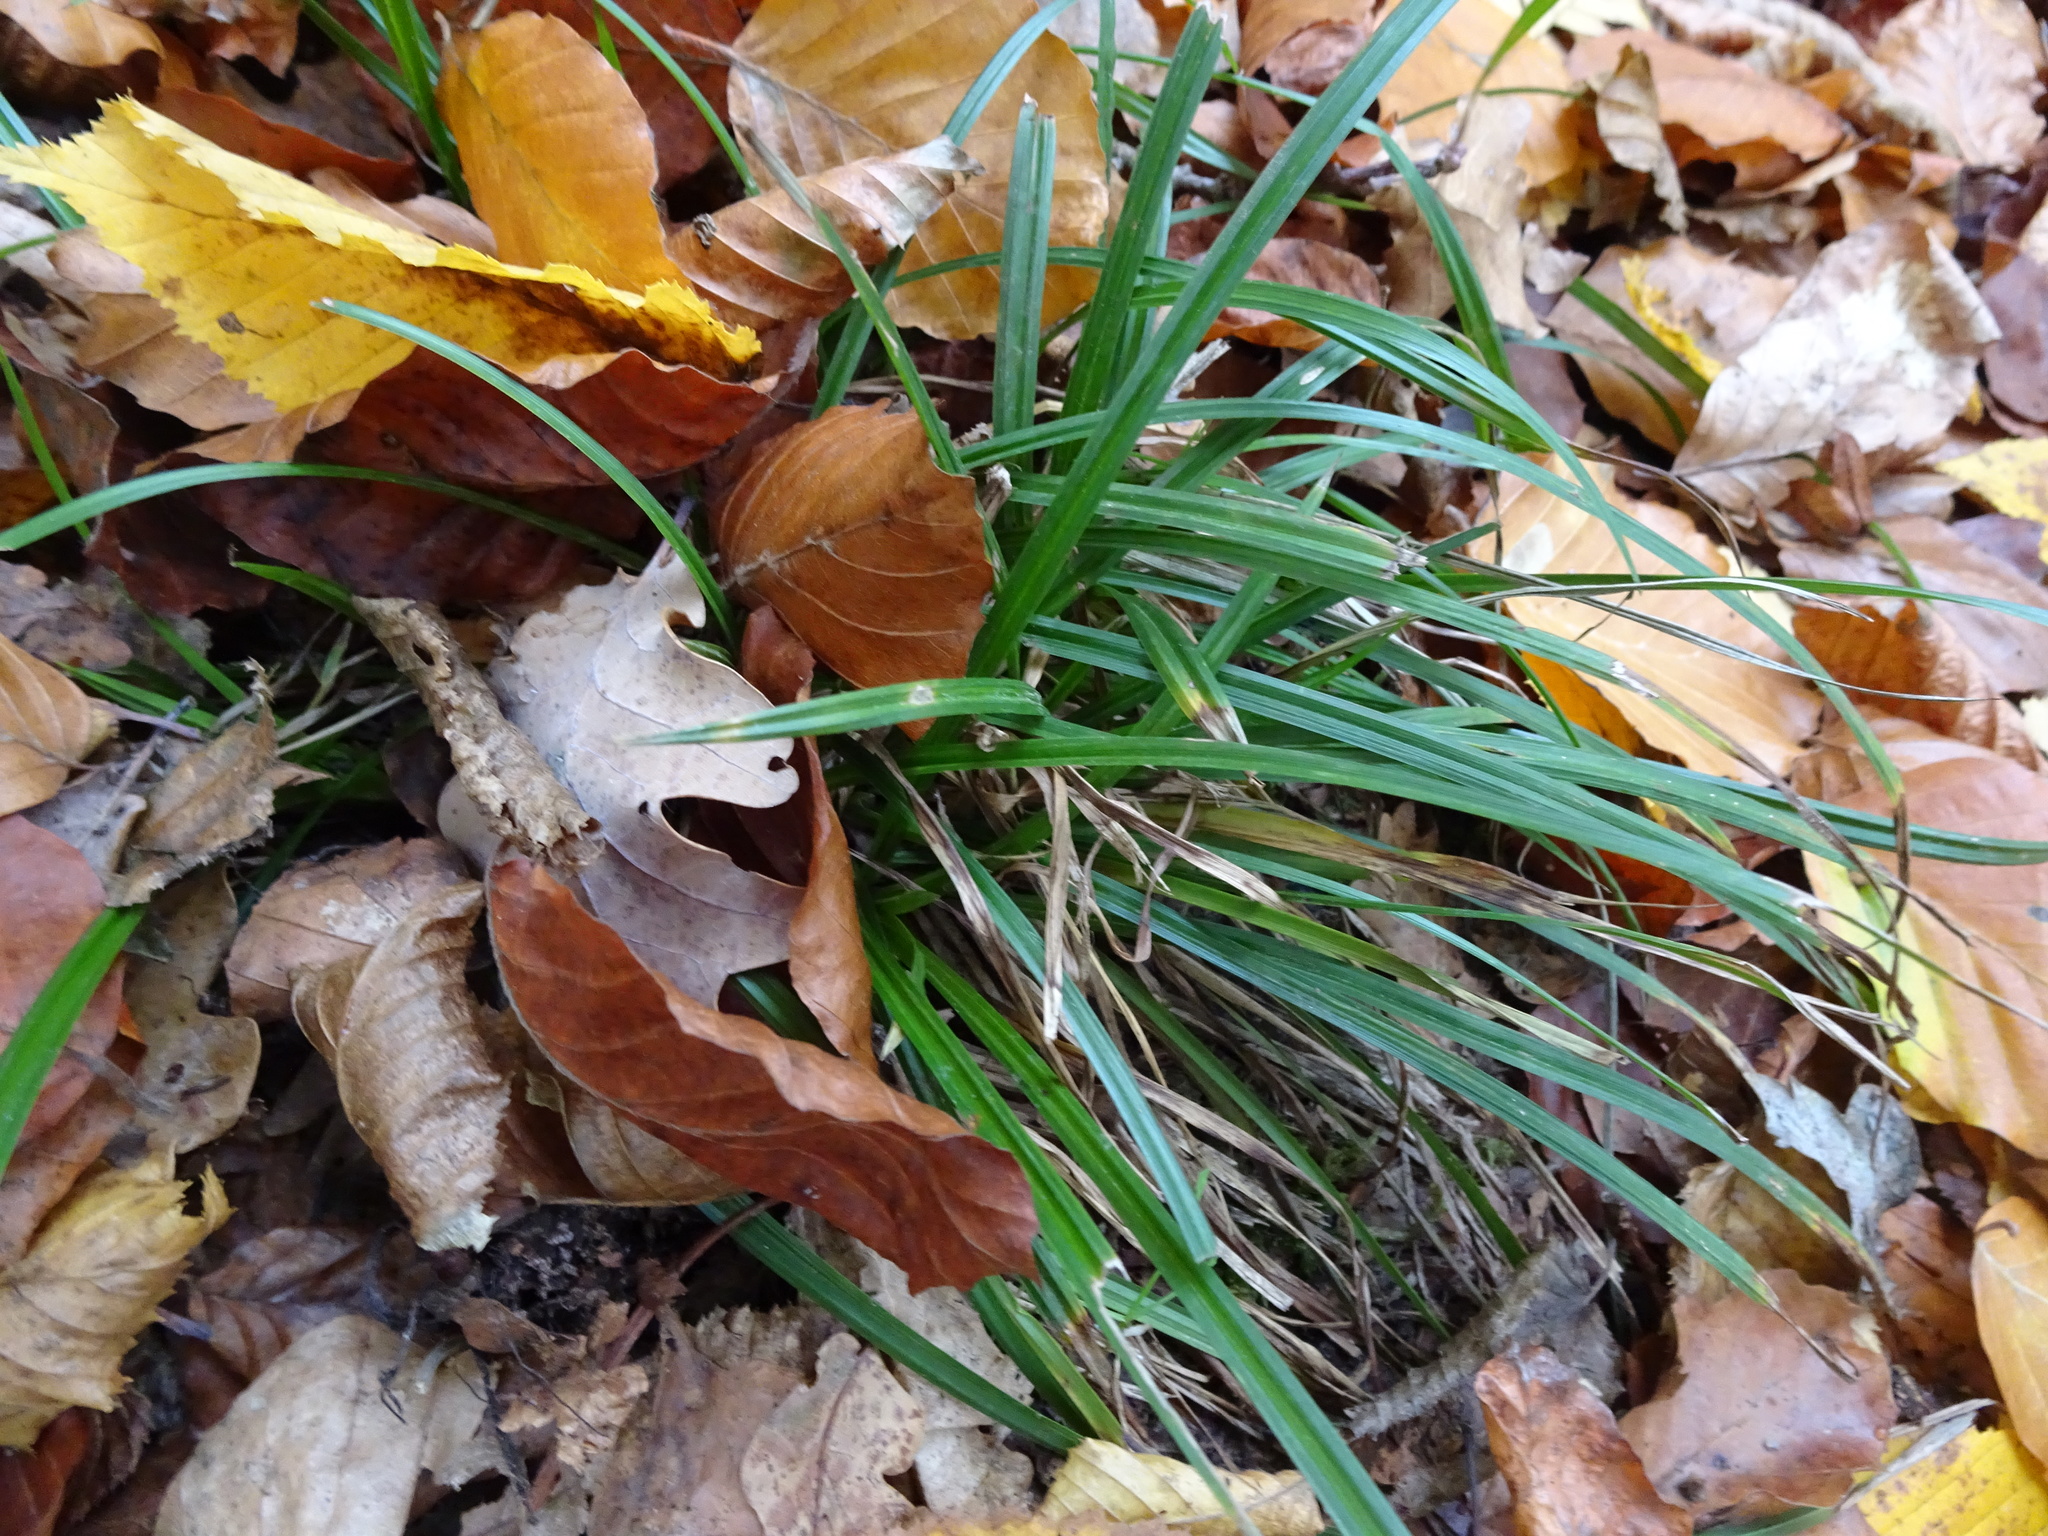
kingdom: Plantae
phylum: Tracheophyta
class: Liliopsida
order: Poales
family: Cyperaceae
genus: Carex
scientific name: Carex sylvatica
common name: Wood-sedge
